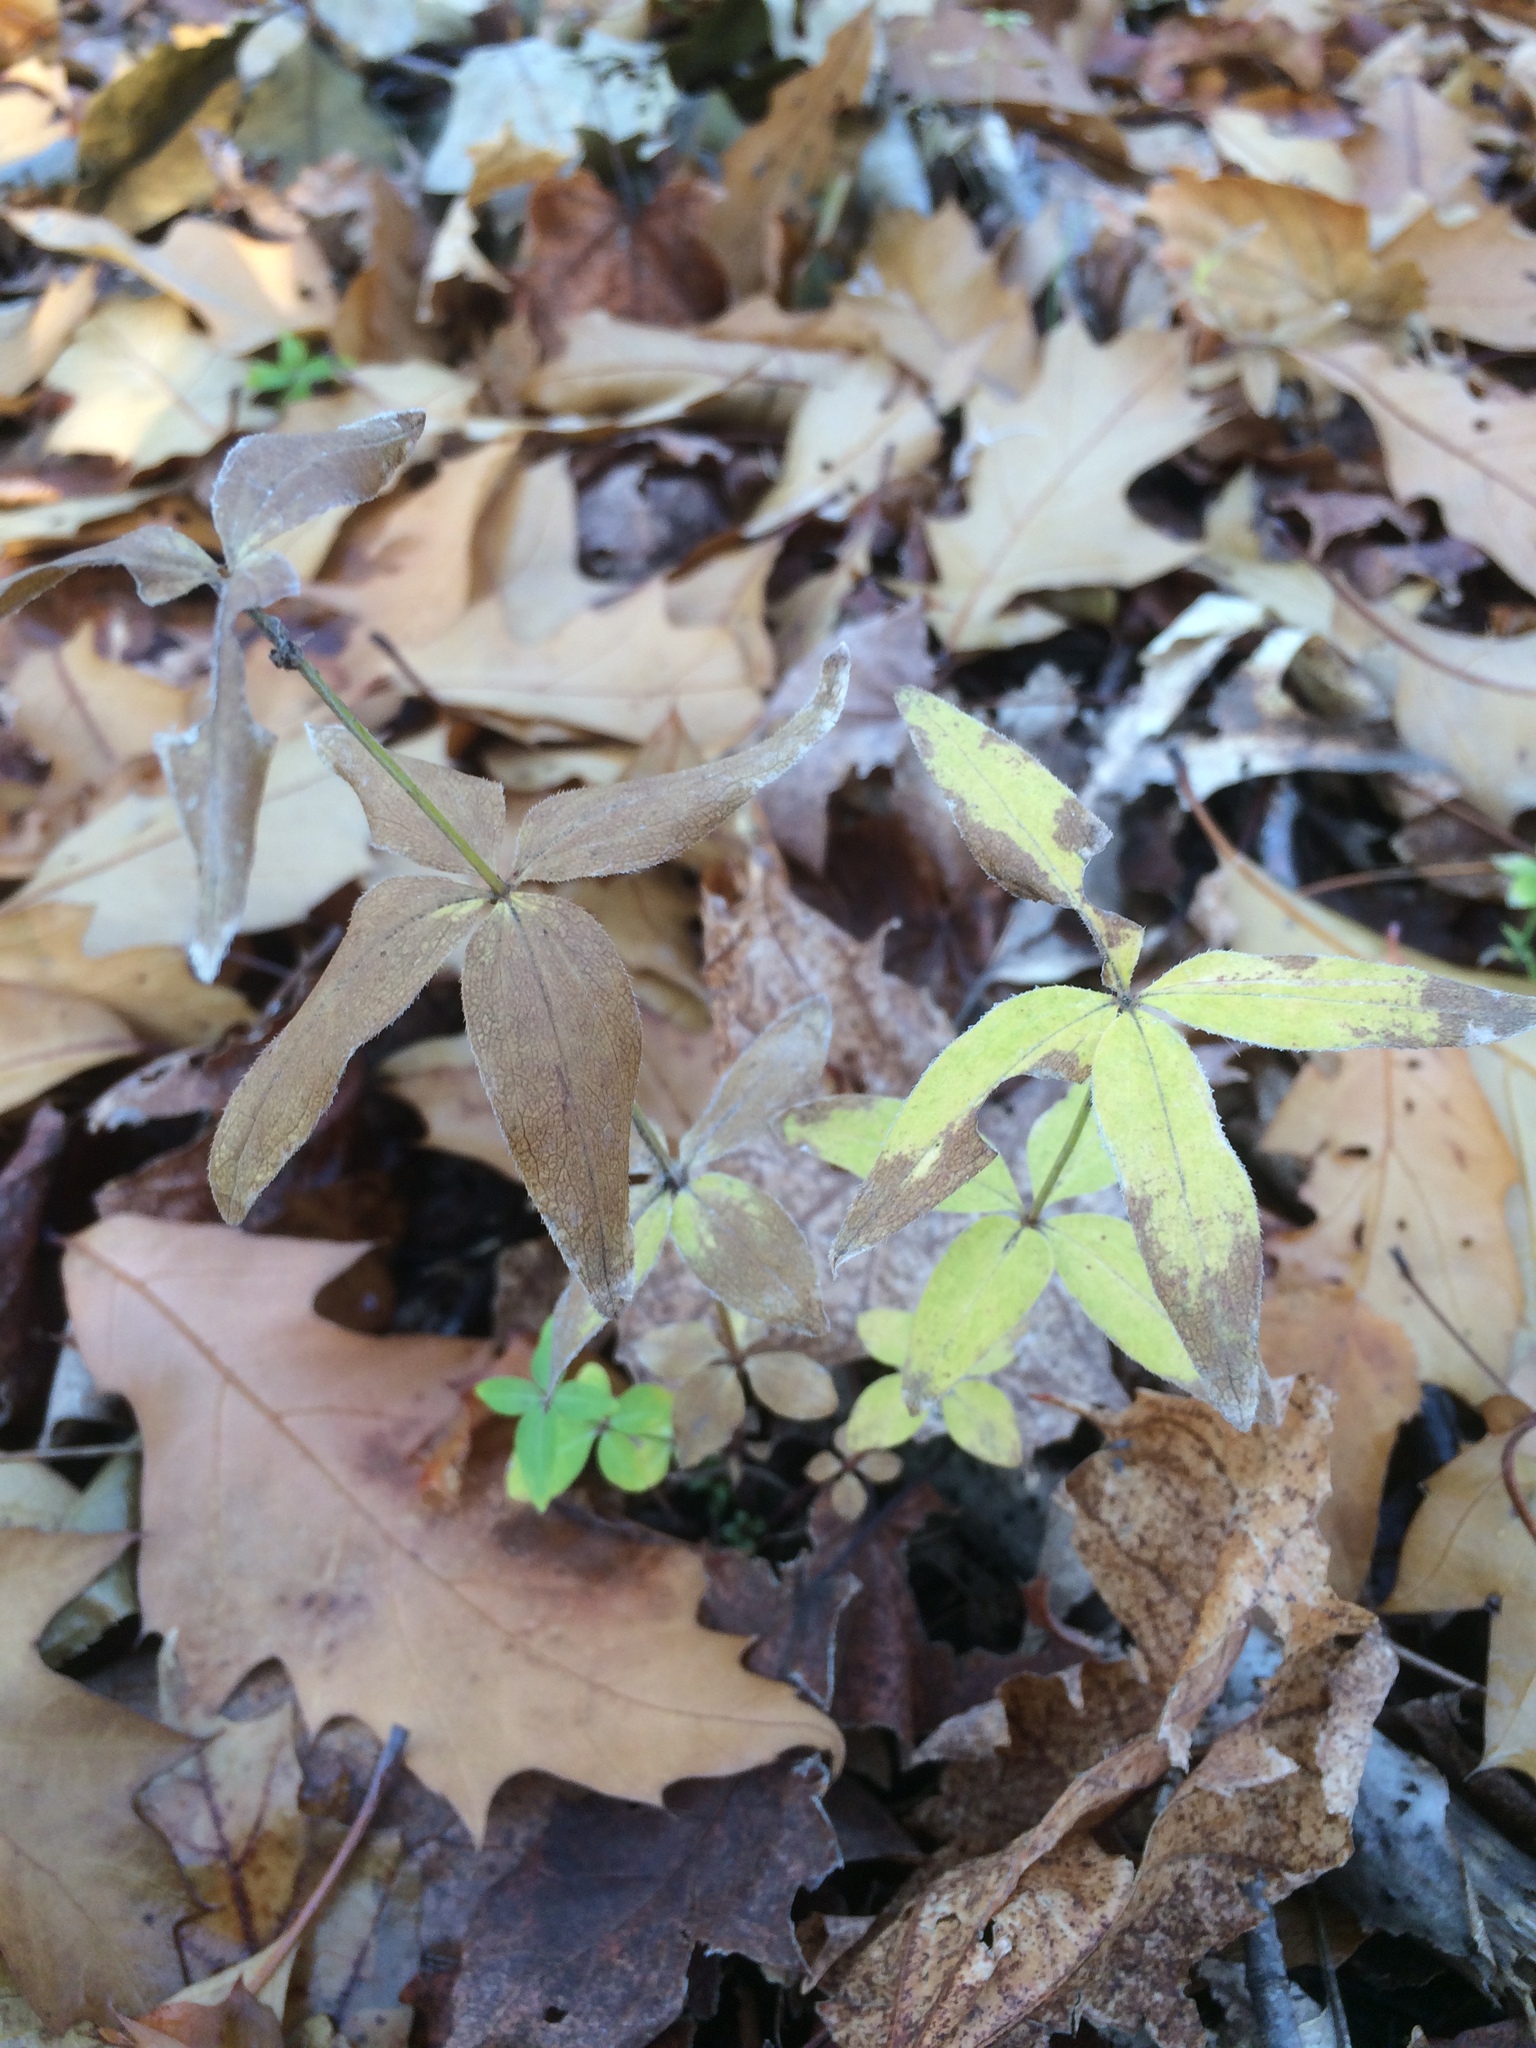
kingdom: Plantae
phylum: Tracheophyta
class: Magnoliopsida
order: Gentianales
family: Rubiaceae
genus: Galium
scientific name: Galium lanceolatum
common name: Lance-leaved wild licorice
